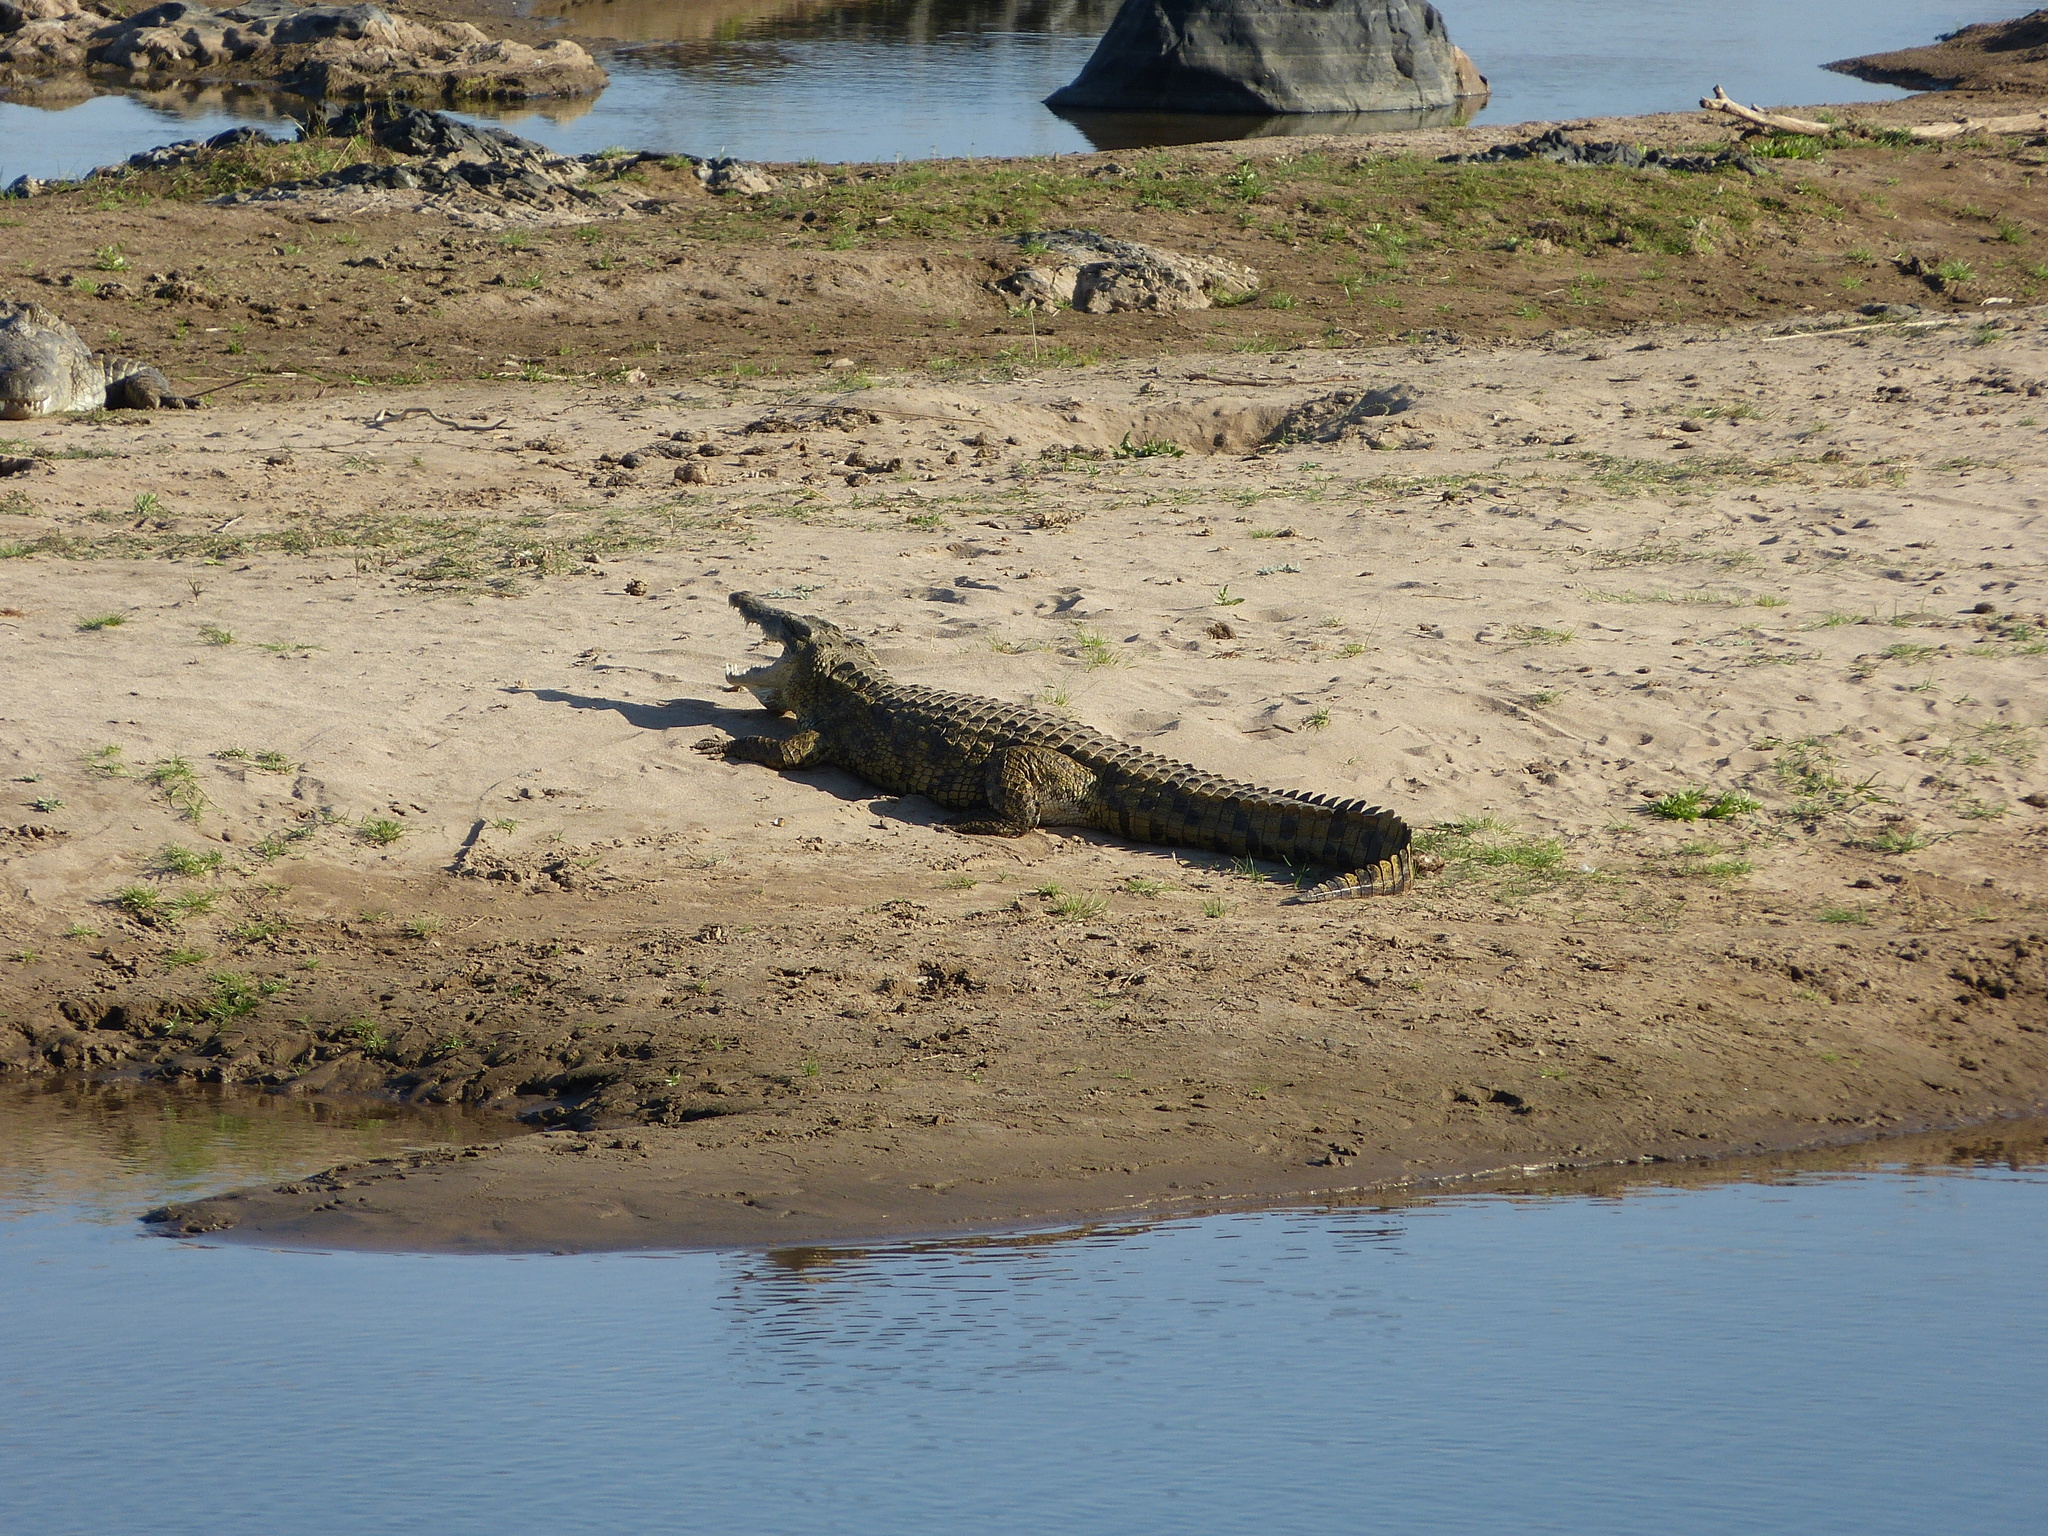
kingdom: Animalia
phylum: Chordata
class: Crocodylia
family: Crocodylidae
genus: Crocodylus
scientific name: Crocodylus niloticus
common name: Nile crocodile
